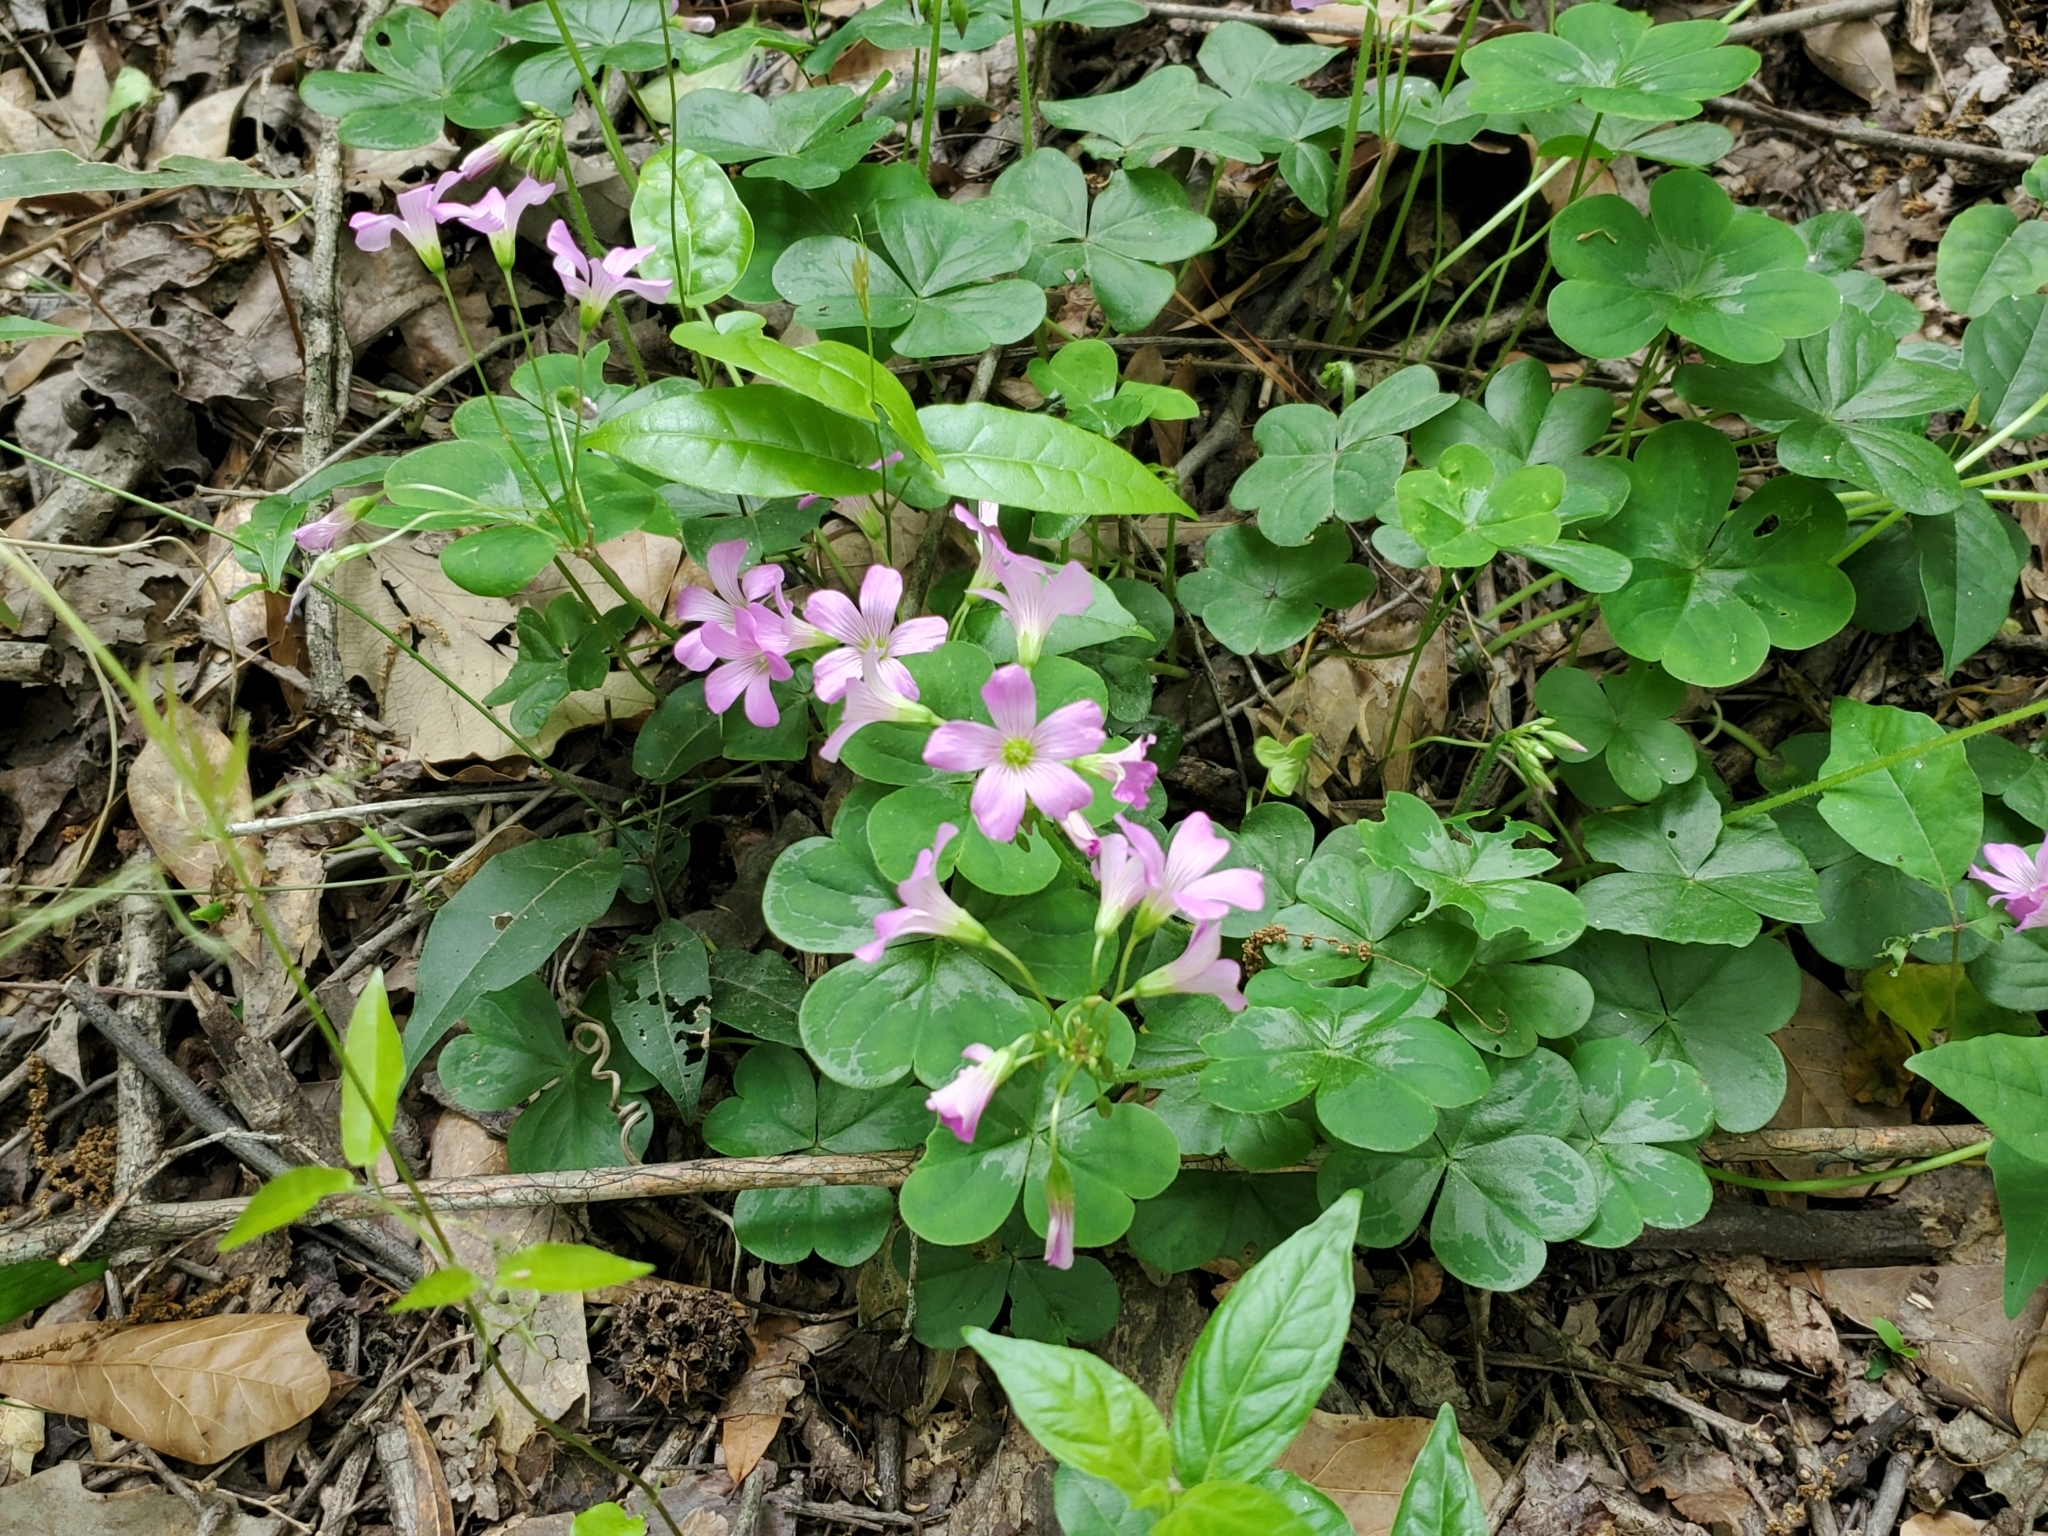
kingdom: Plantae
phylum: Tracheophyta
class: Magnoliopsida
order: Oxalidales
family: Oxalidaceae
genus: Oxalis
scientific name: Oxalis debilis
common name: Large-flowered pink-sorrel
